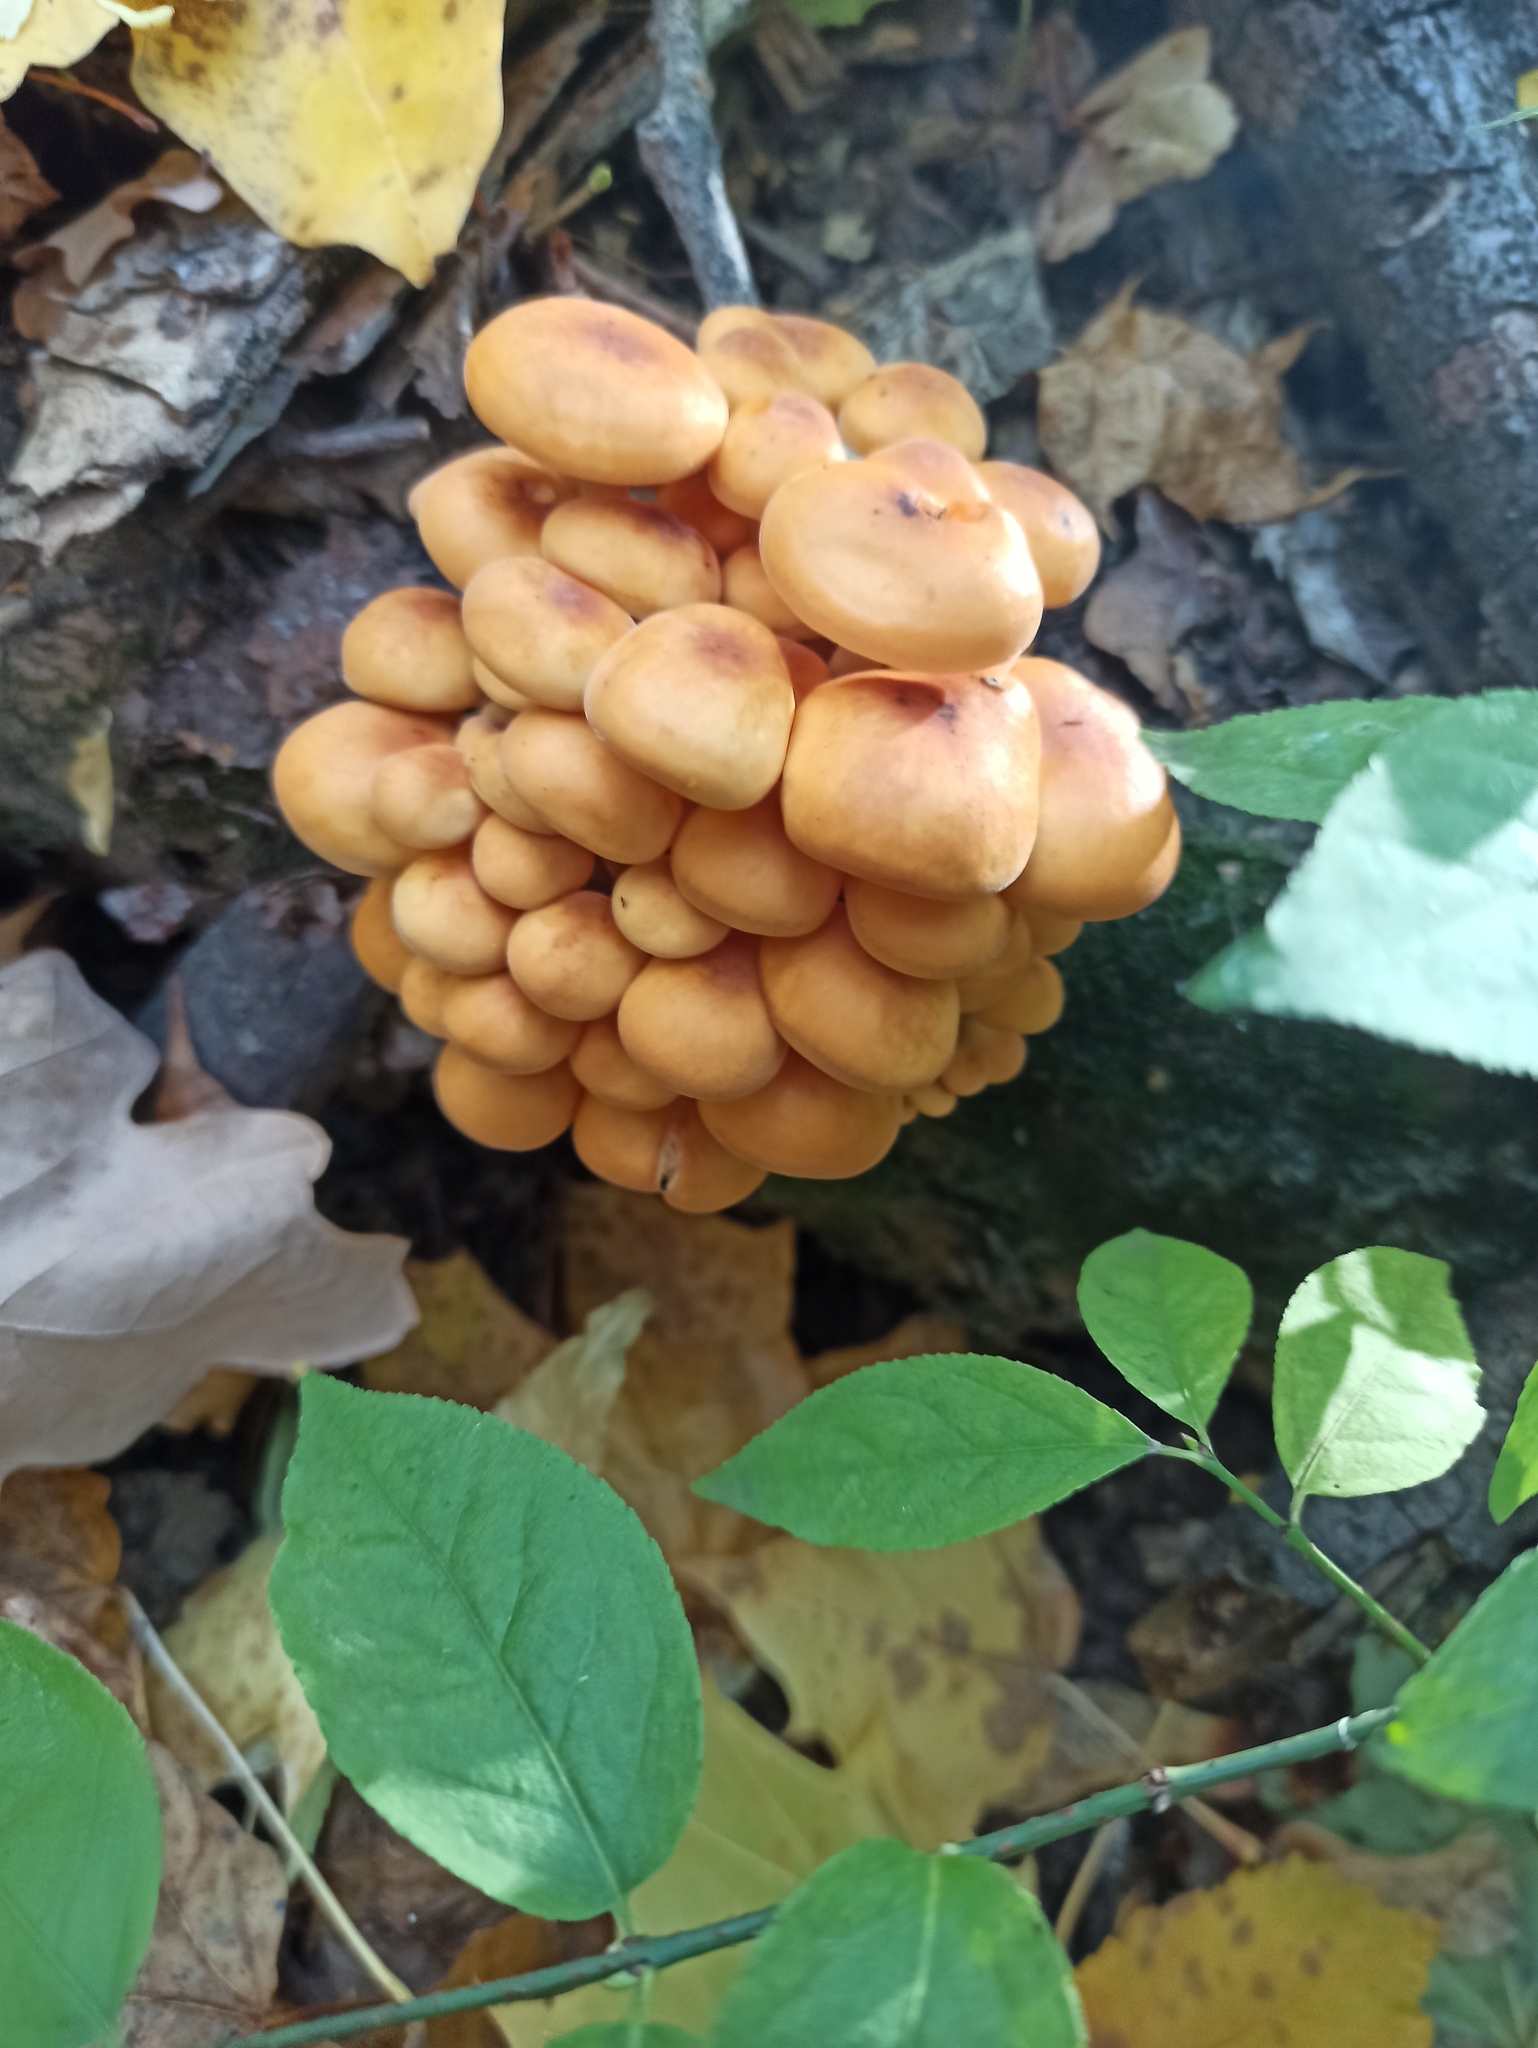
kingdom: Fungi
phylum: Basidiomycota
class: Agaricomycetes
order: Agaricales
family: Physalacriaceae
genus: Flammulina
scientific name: Flammulina
